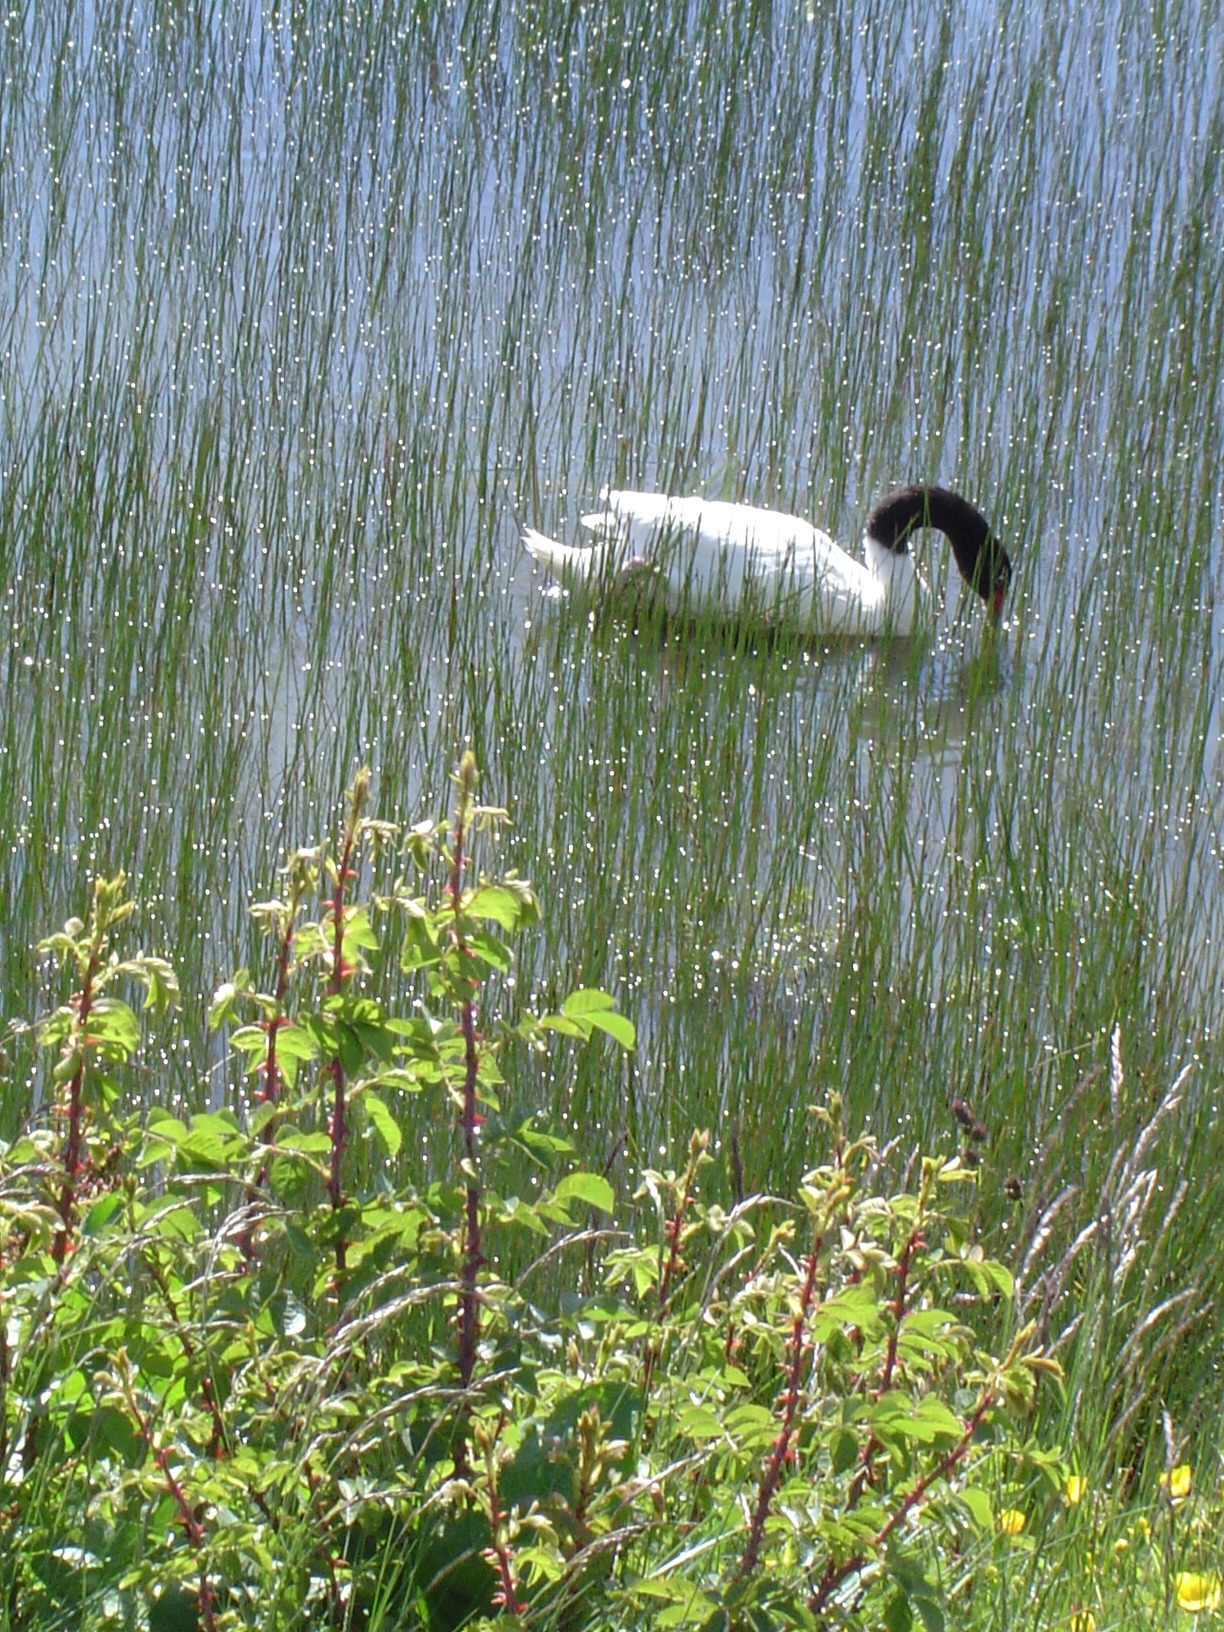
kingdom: Animalia
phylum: Chordata
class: Aves
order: Anseriformes
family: Anatidae
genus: Cygnus
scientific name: Cygnus melancoryphus
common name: Black-necked swan
